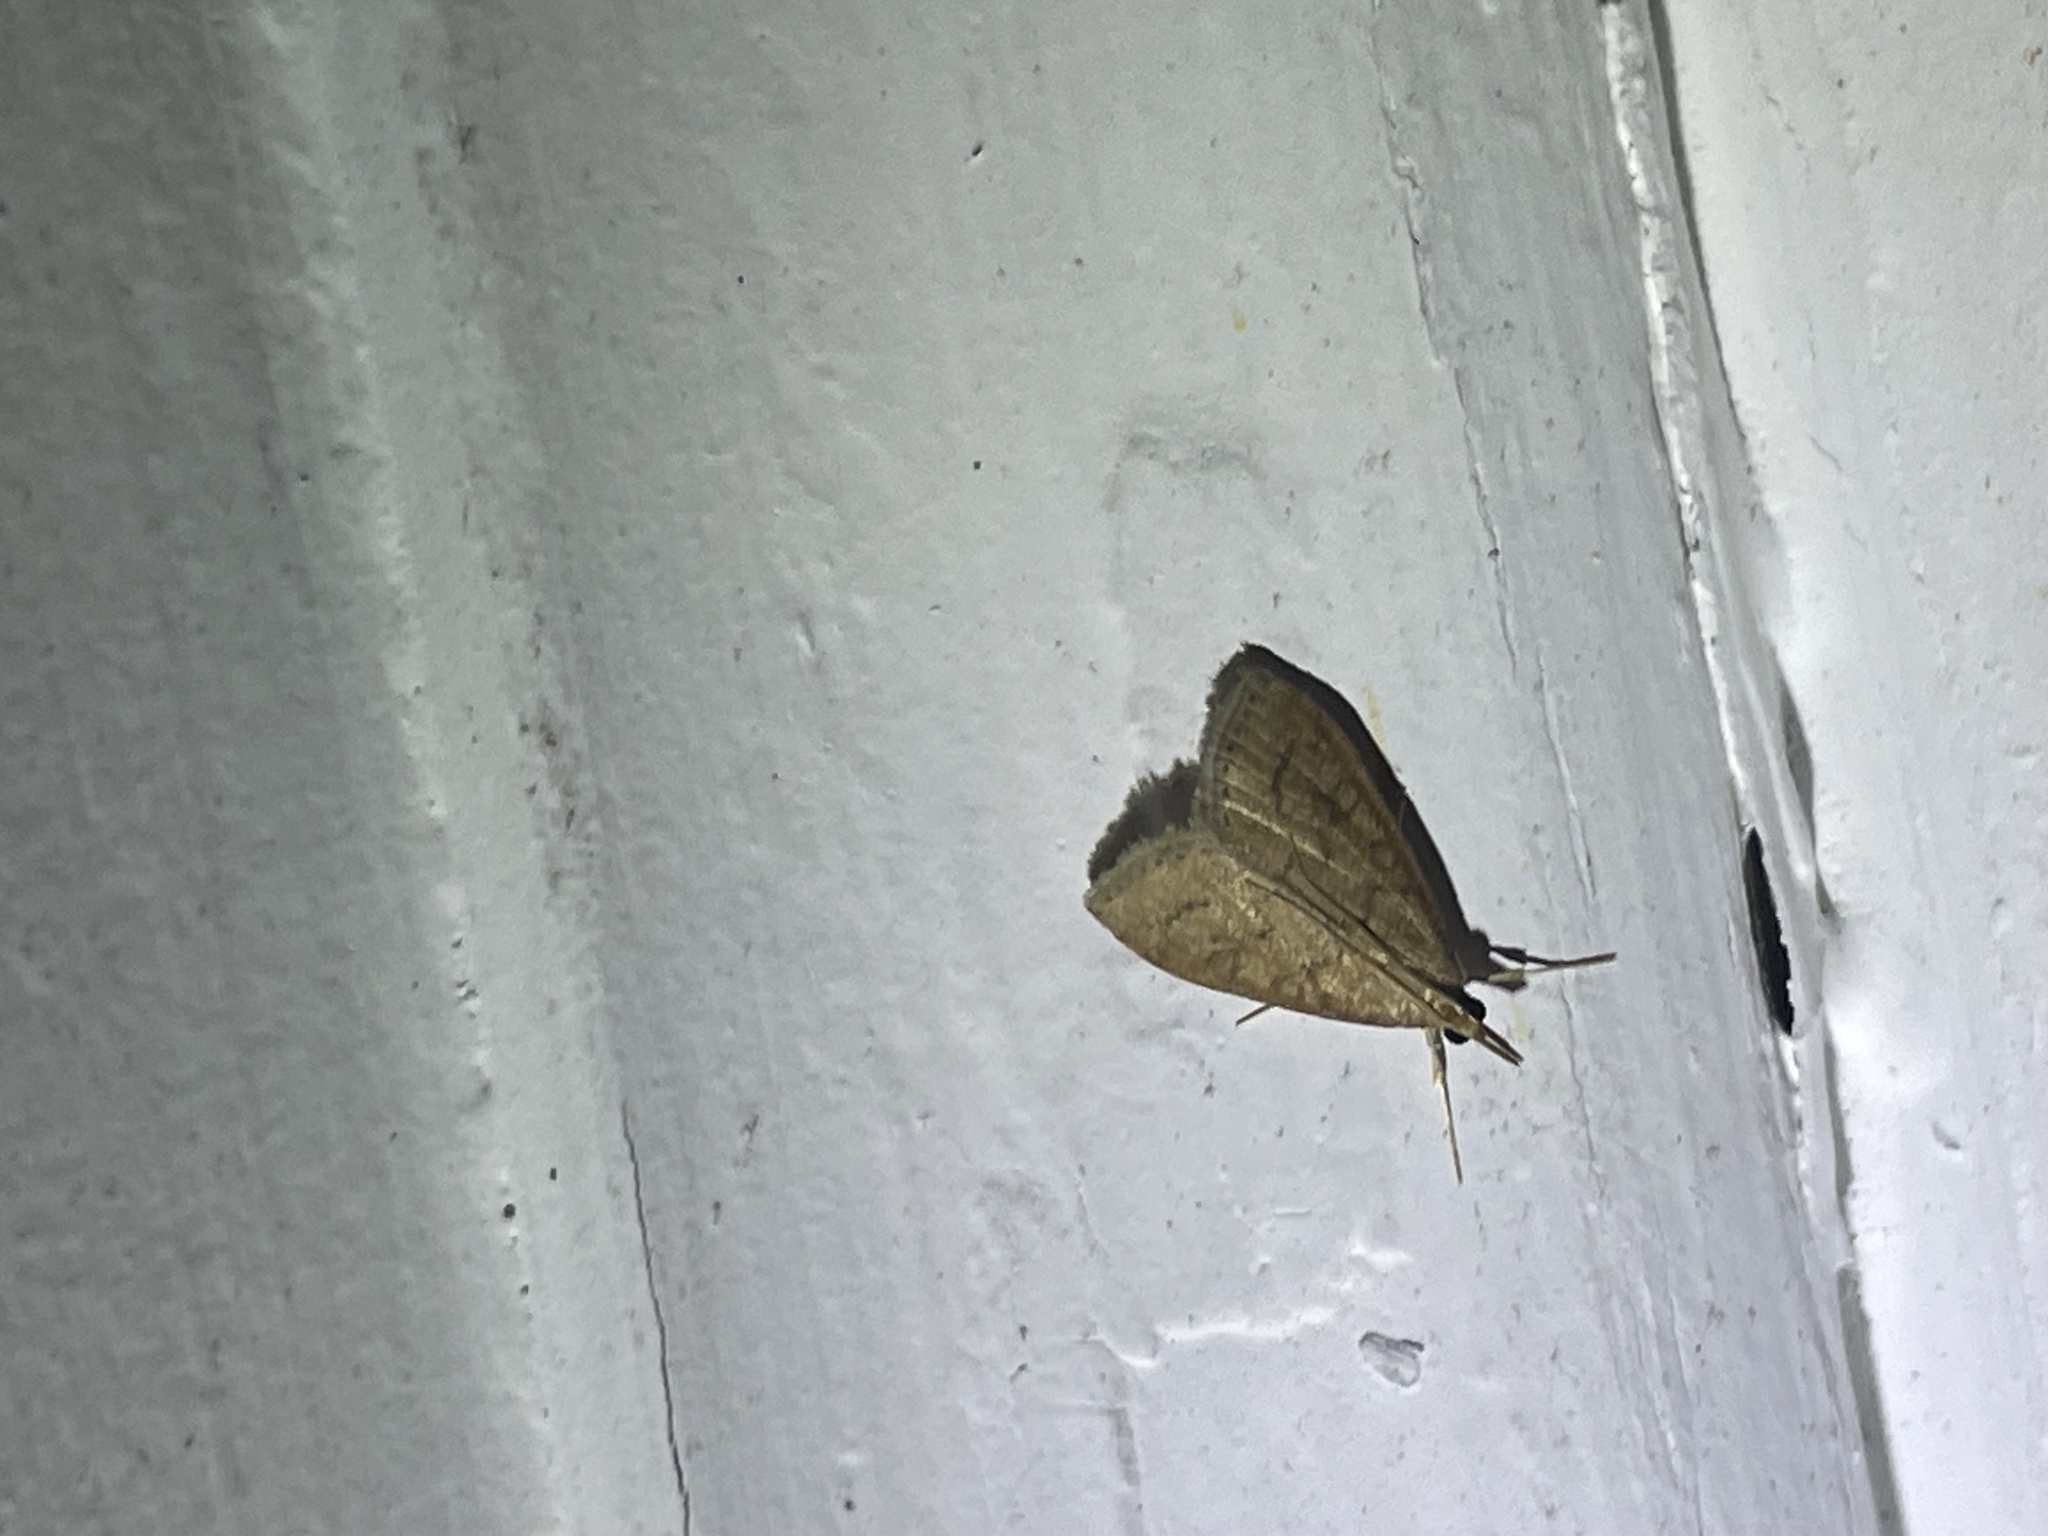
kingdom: Animalia
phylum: Arthropoda
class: Insecta
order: Lepidoptera
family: Crambidae
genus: Udea
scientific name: Udea rubigalis
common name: Celery leaftier moth
